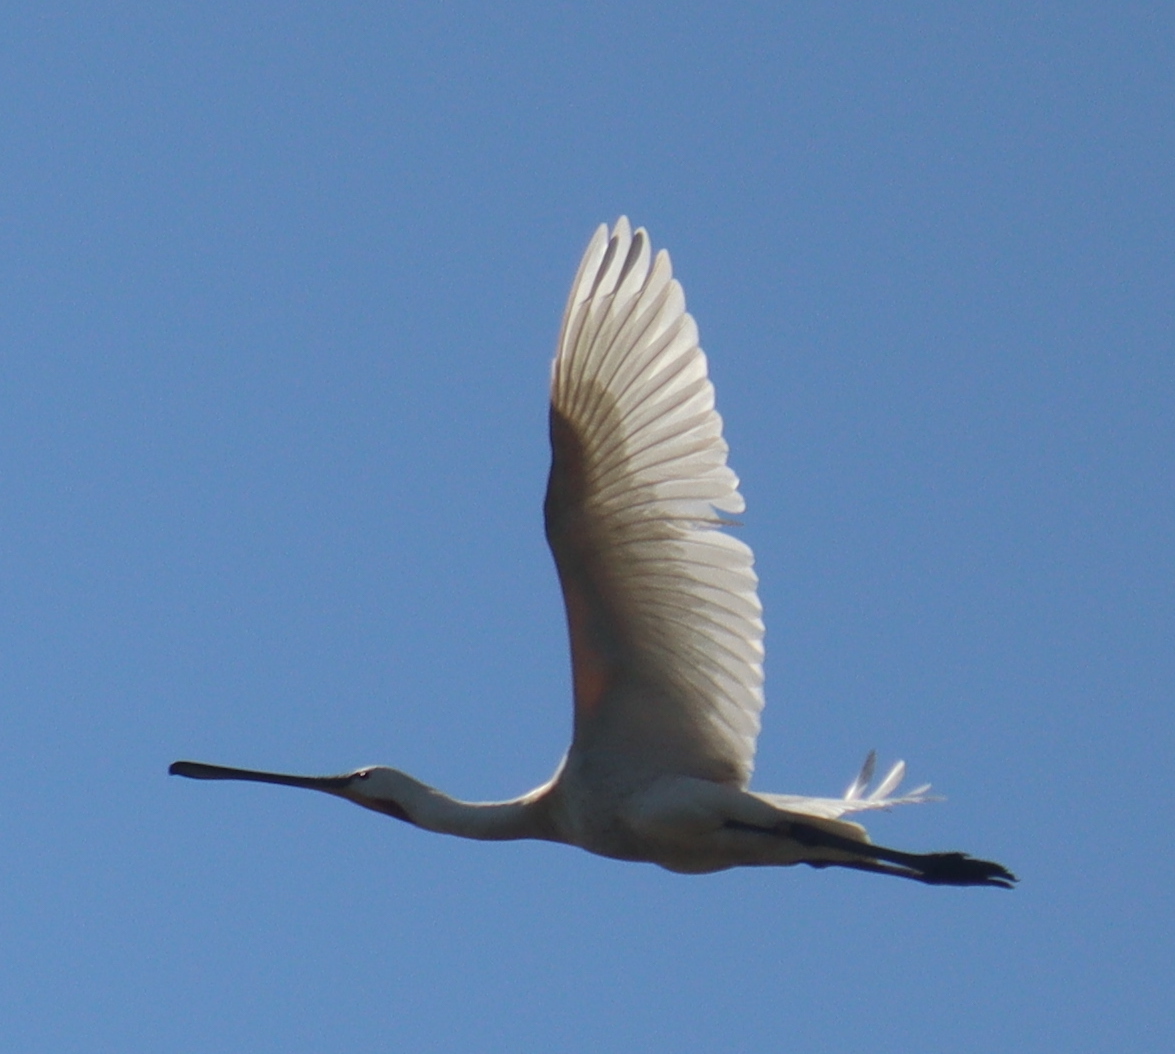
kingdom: Animalia
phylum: Chordata
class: Aves
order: Pelecaniformes
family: Threskiornithidae
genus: Platalea
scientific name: Platalea leucorodia
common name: Eurasian spoonbill
